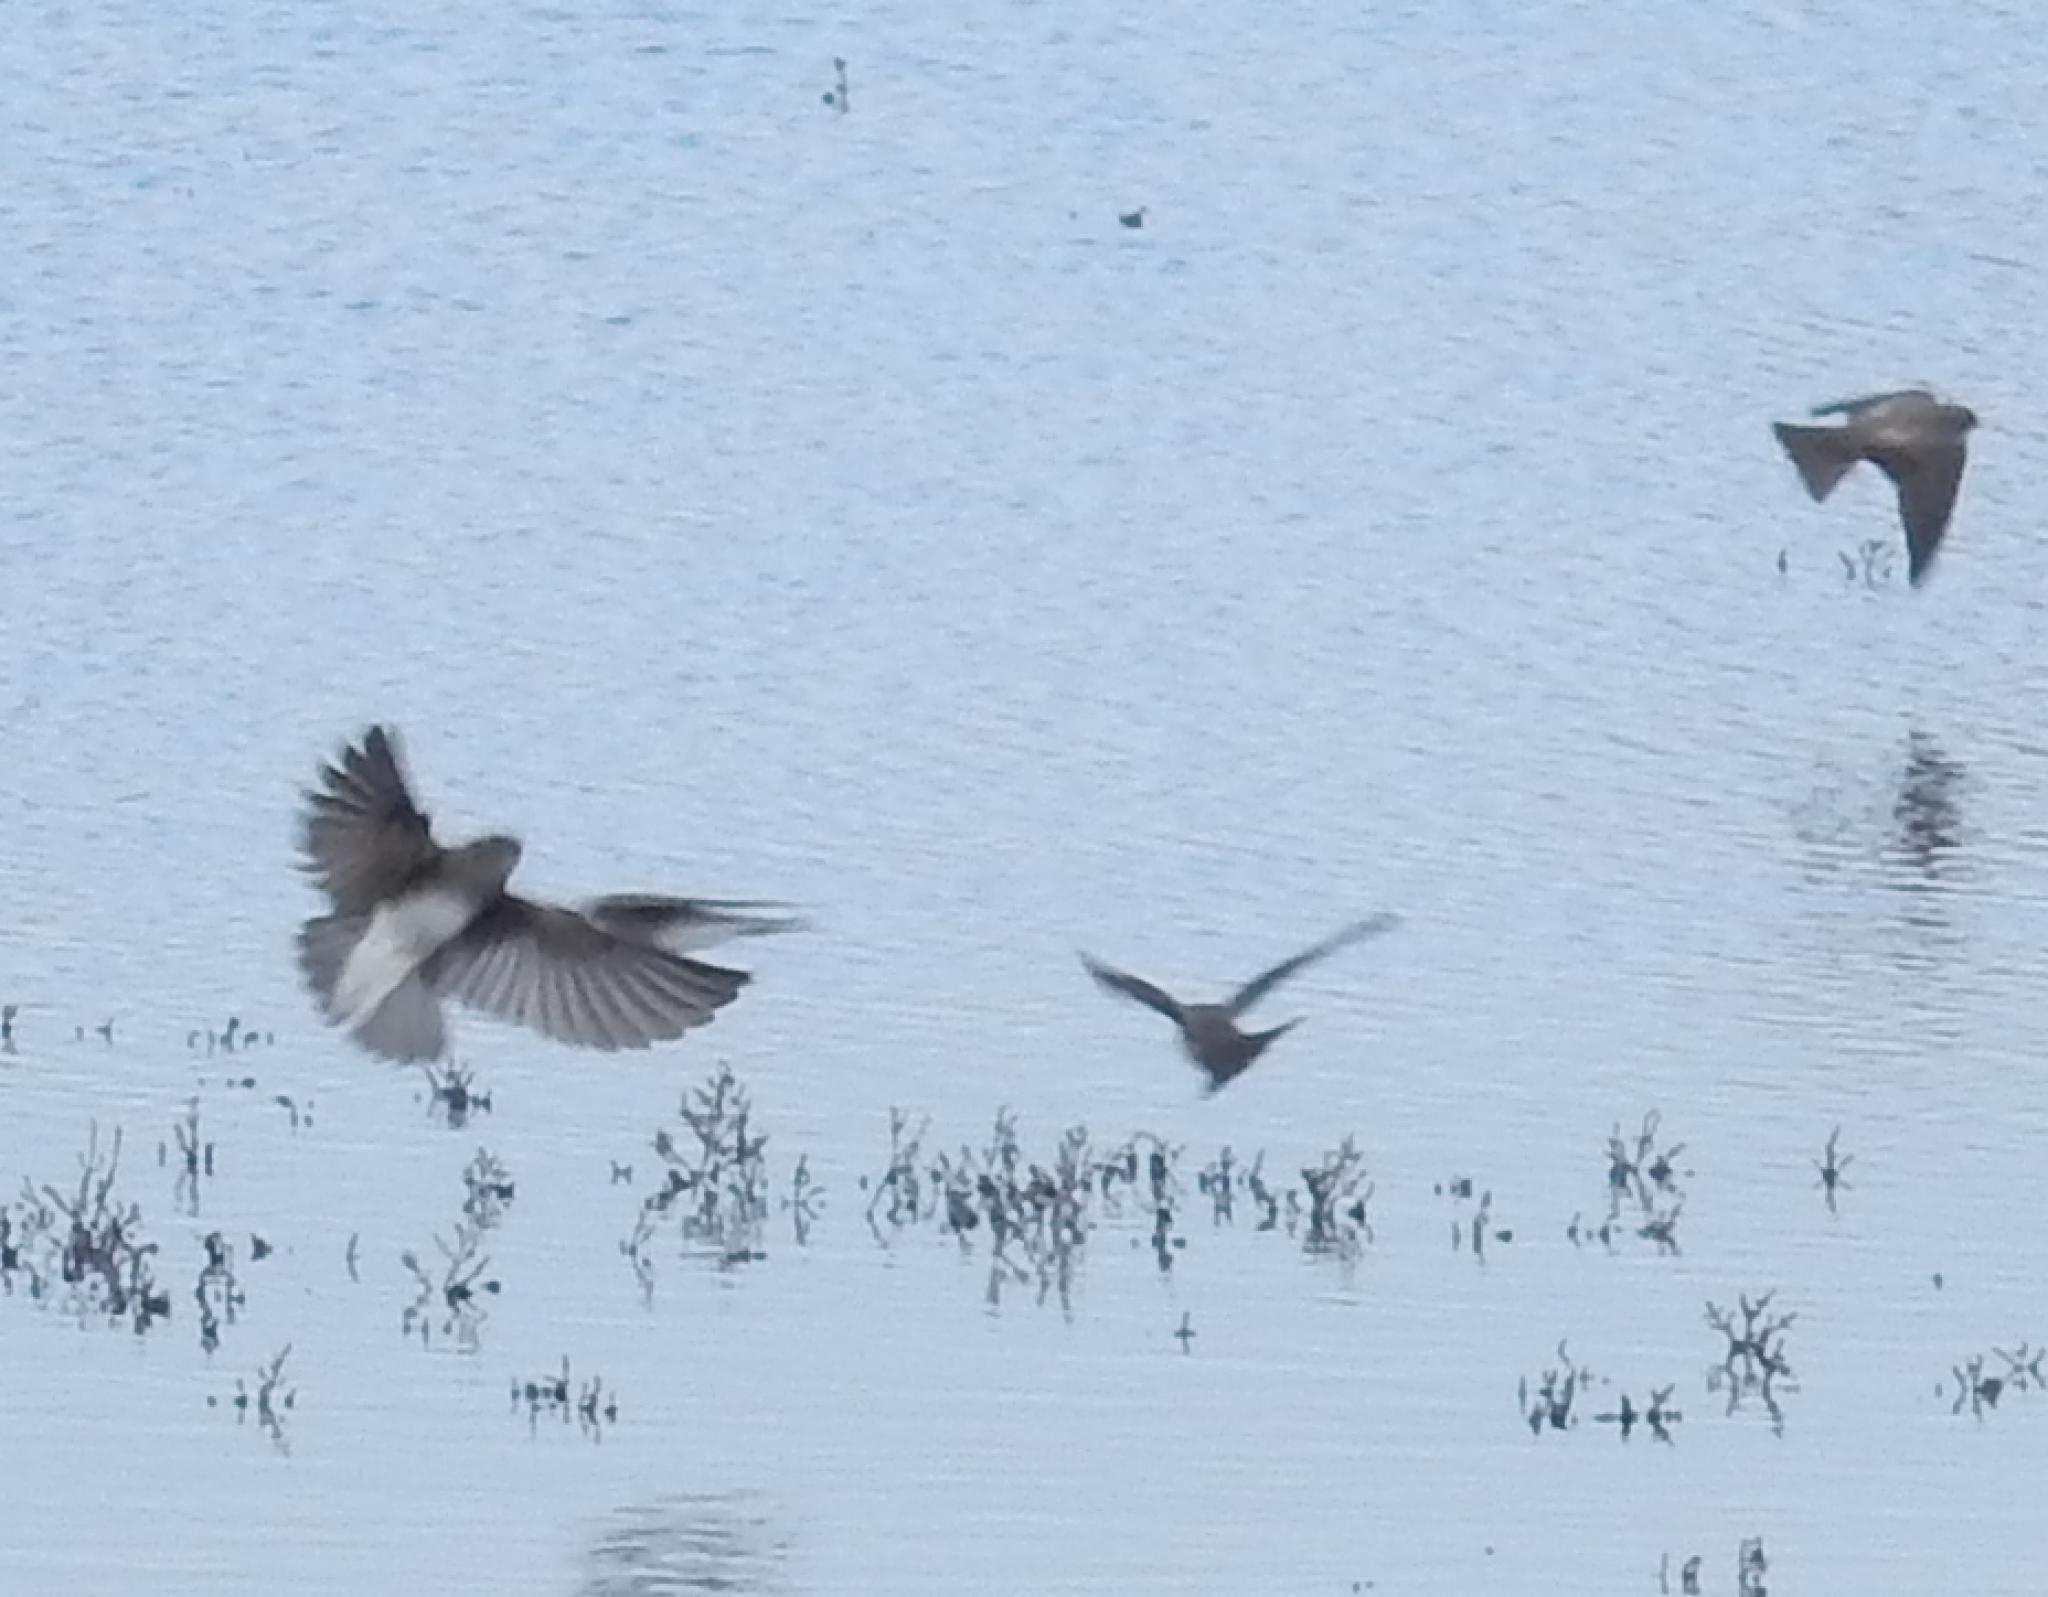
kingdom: Animalia
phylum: Chordata
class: Aves
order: Passeriformes
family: Hirundinidae
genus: Riparia
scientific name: Riparia paludicola
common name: Brown-throated martin
